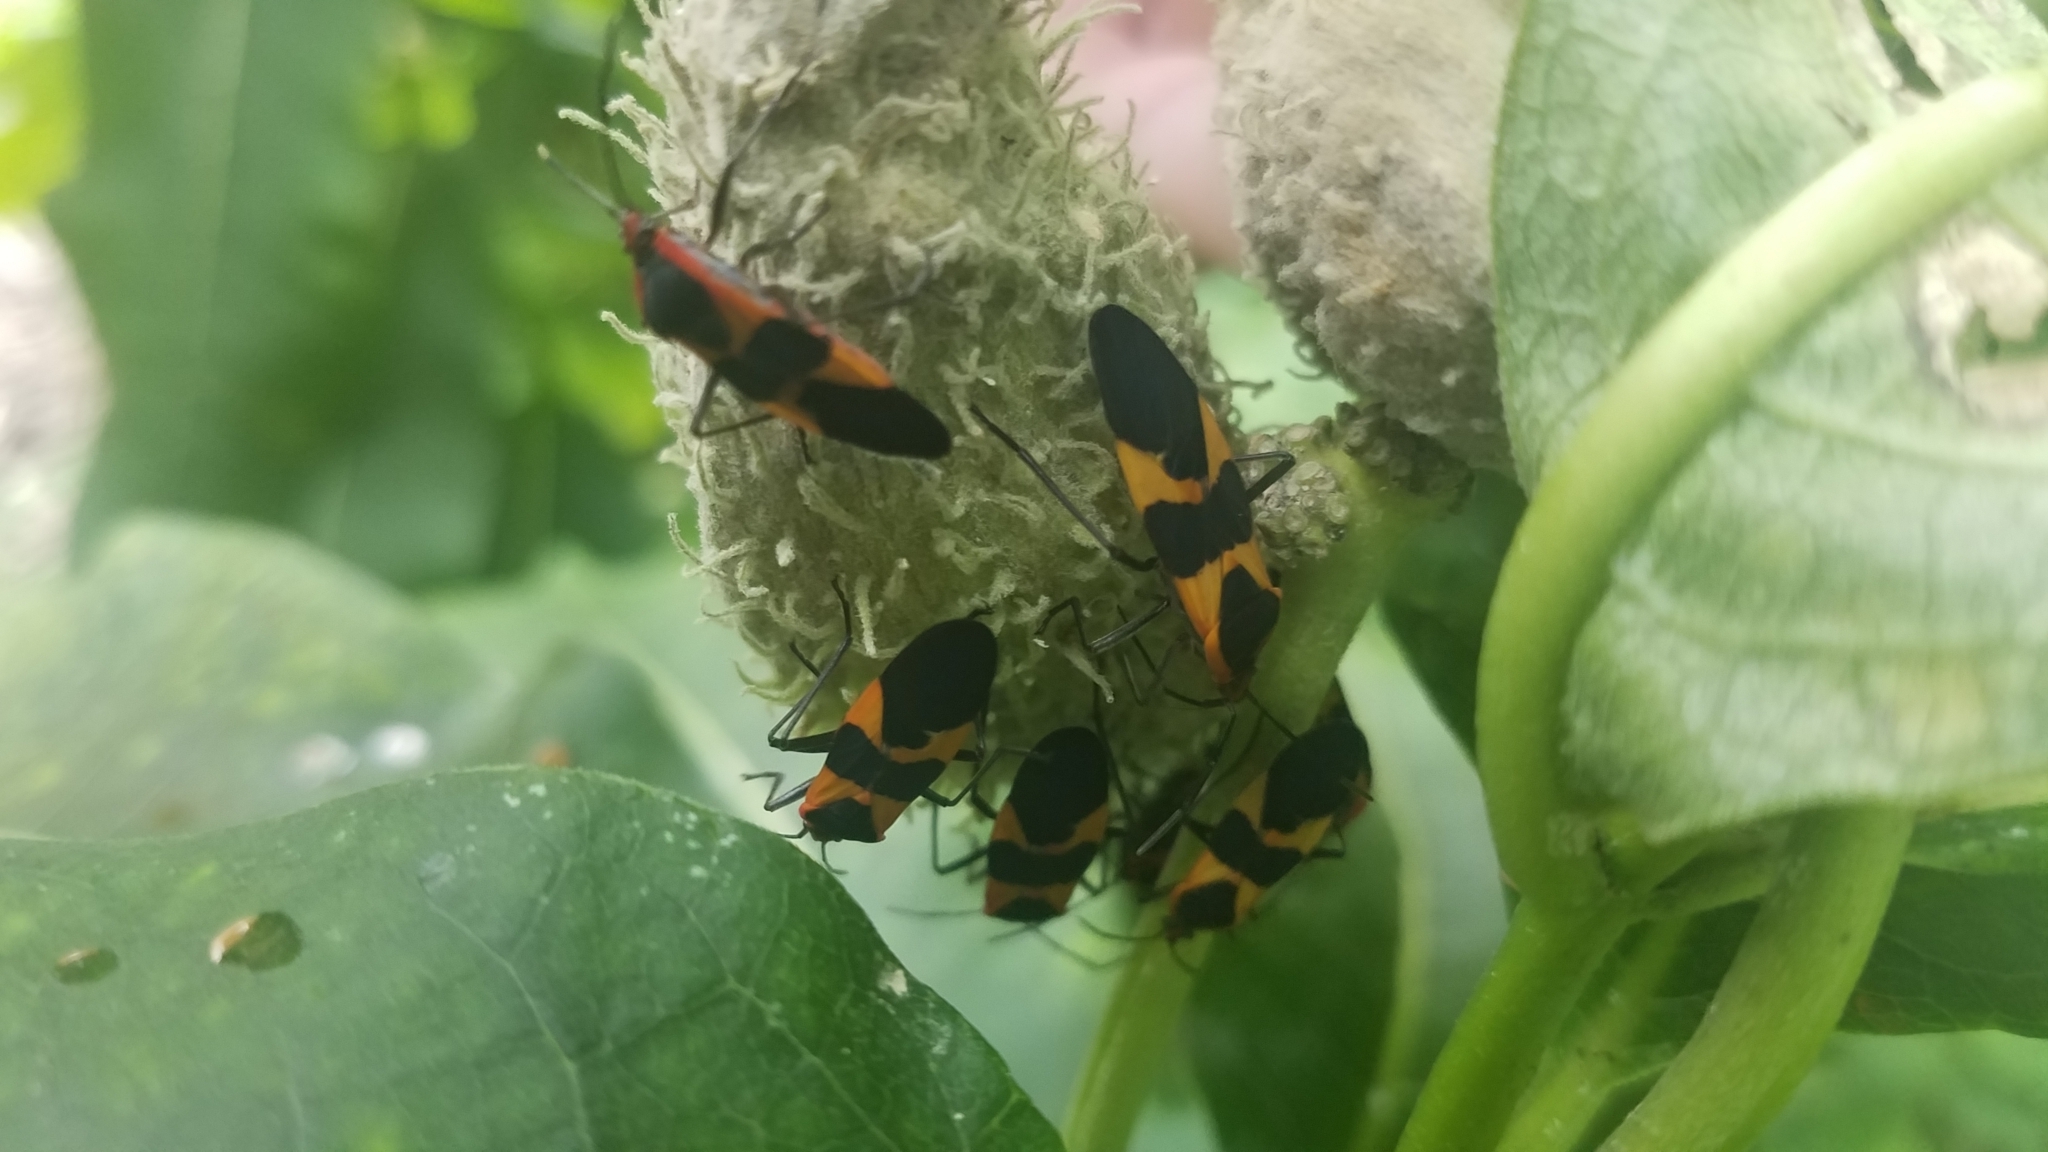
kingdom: Animalia
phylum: Arthropoda
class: Insecta
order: Hemiptera
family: Lygaeidae
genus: Oncopeltus
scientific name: Oncopeltus fasciatus
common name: Large milkweed bug
